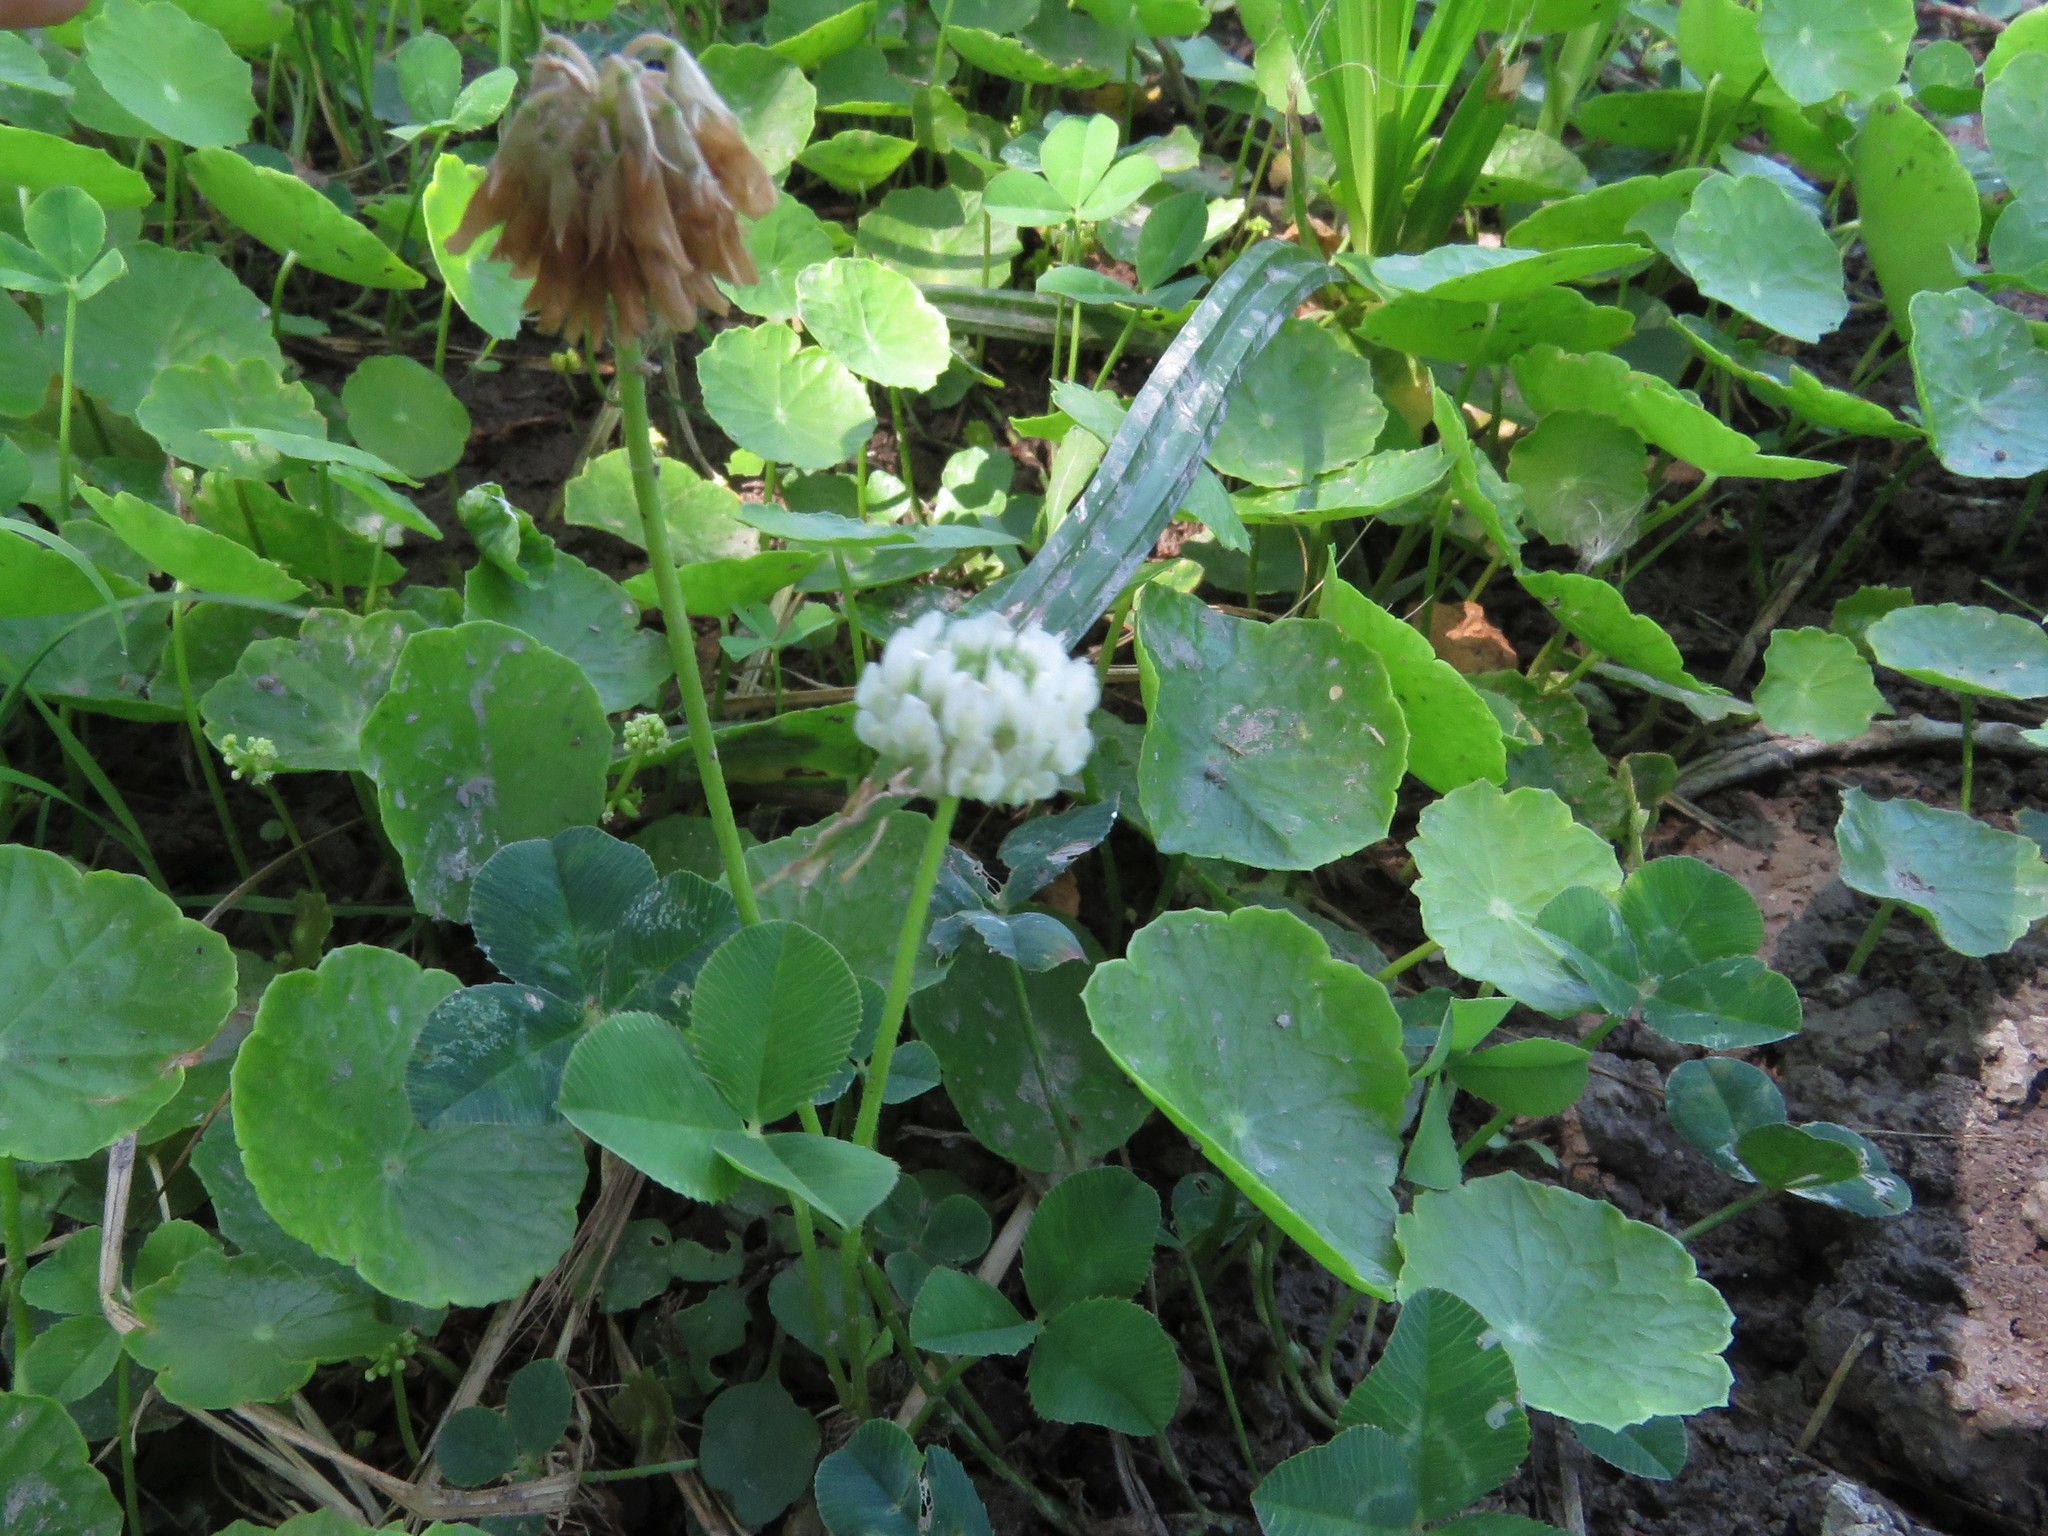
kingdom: Plantae
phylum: Tracheophyta
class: Magnoliopsida
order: Fabales
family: Fabaceae
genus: Trifolium
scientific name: Trifolium repens
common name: White clover
